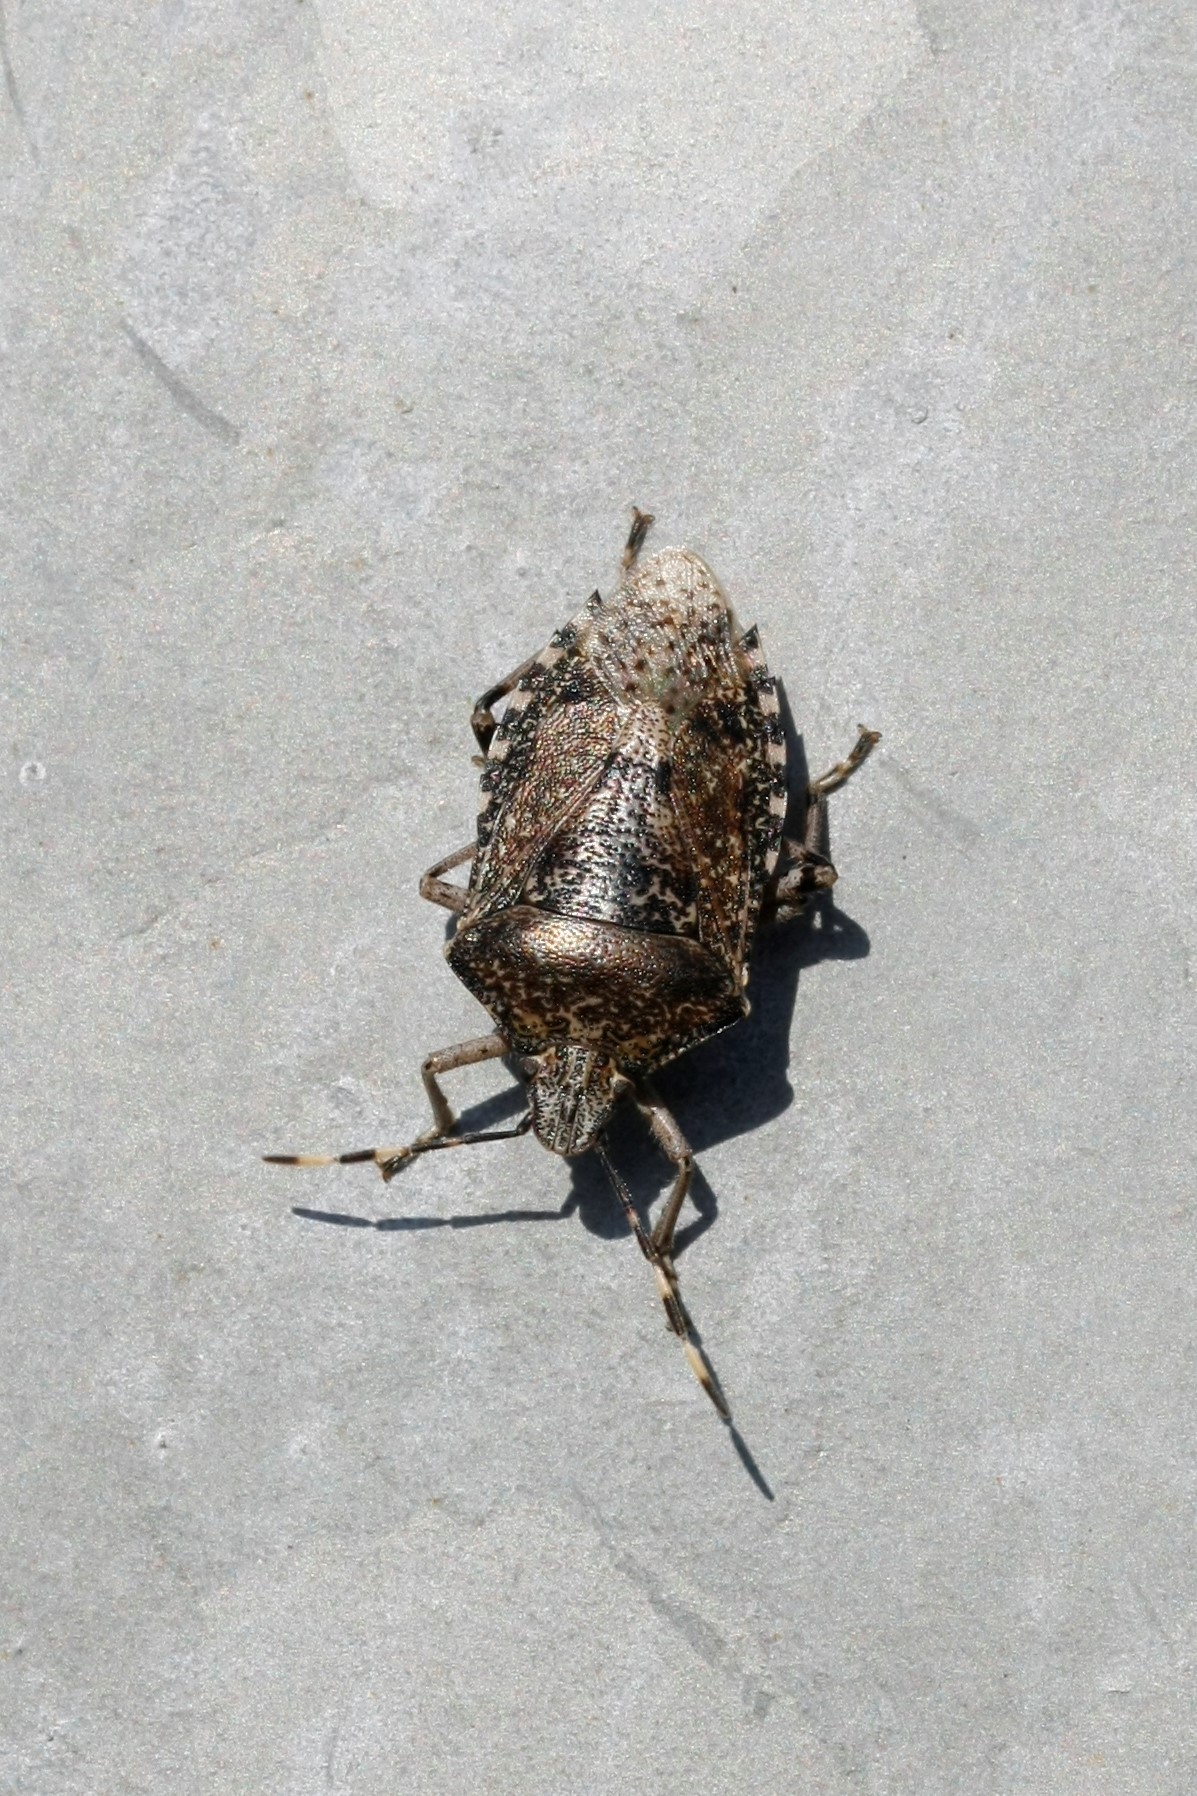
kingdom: Animalia
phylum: Arthropoda
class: Insecta
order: Hemiptera
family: Pentatomidae
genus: Rhaphigaster
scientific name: Rhaphigaster nebulosa
